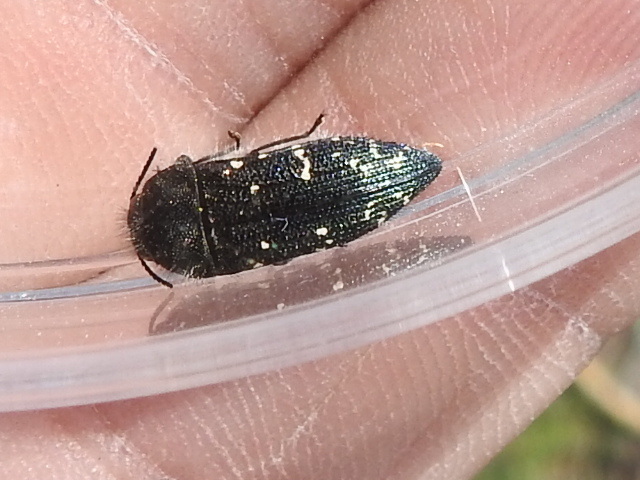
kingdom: Animalia
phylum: Arthropoda
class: Insecta
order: Coleoptera
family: Buprestidae
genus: Acmaeodera
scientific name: Acmaeodera ornatoides
